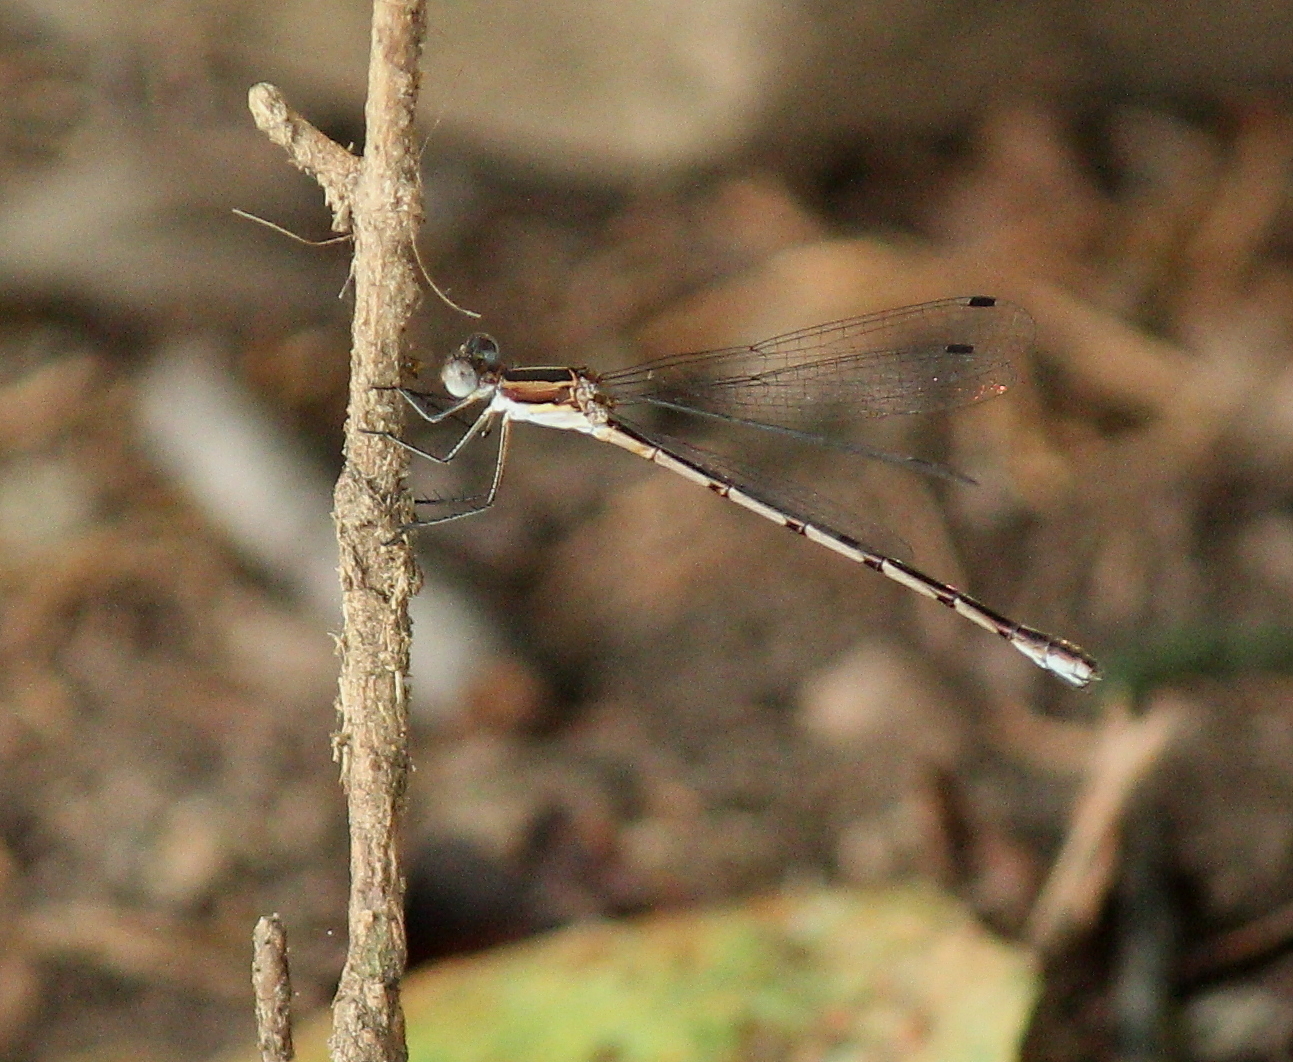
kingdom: Animalia
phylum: Arthropoda
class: Insecta
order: Odonata
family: Lestidae
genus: Lestes
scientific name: Lestes australis
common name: Southern spreadwing
